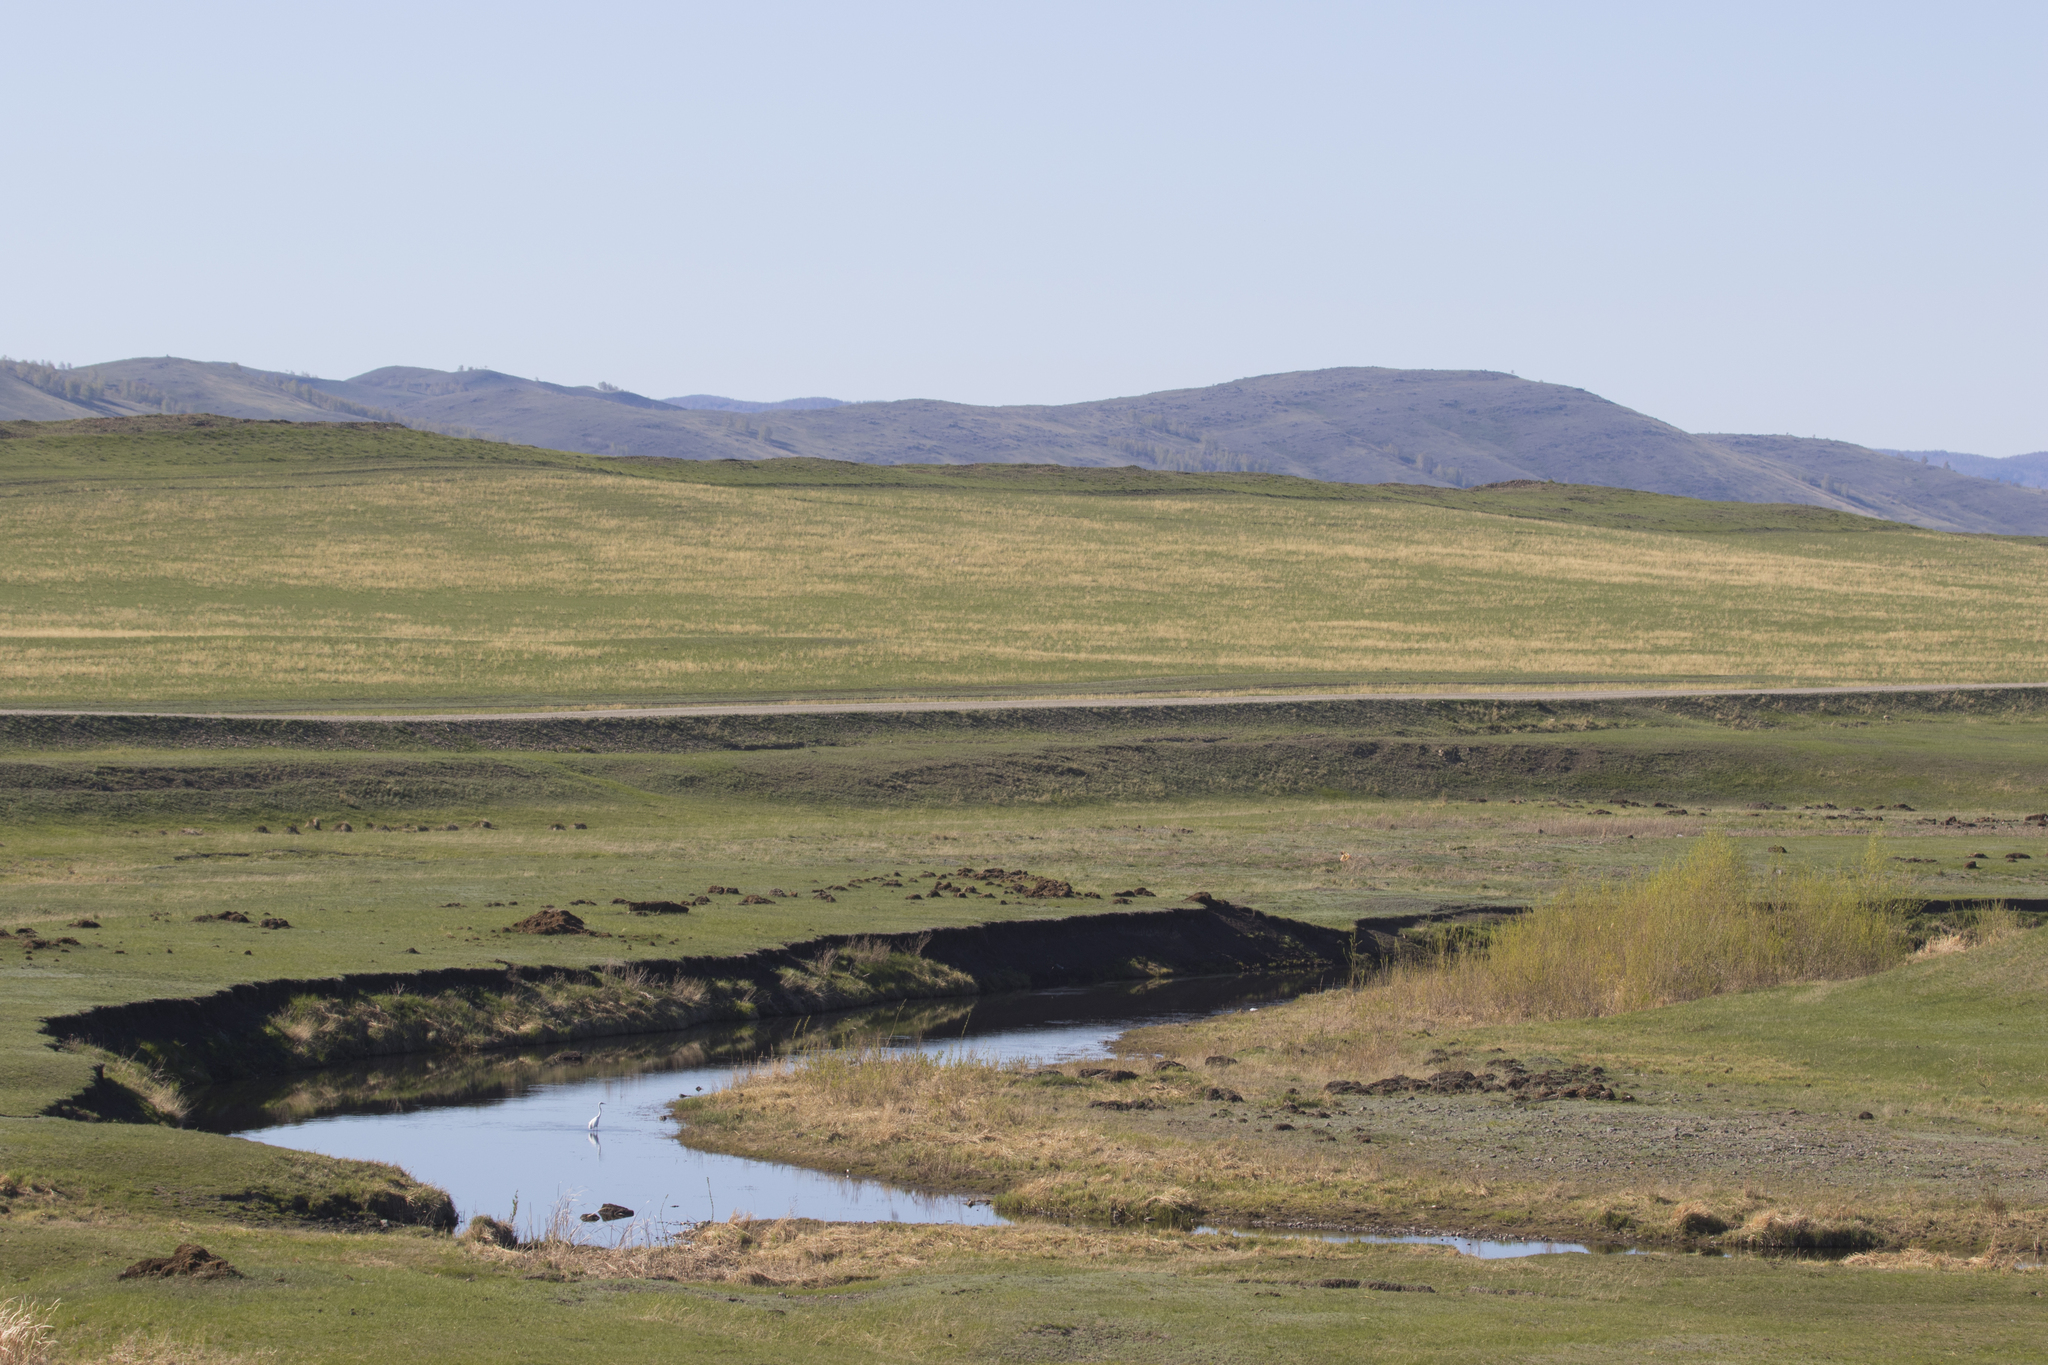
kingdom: Animalia
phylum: Chordata
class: Aves
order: Pelecaniformes
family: Ardeidae
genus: Ardea
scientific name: Ardea alba
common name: Great egret
